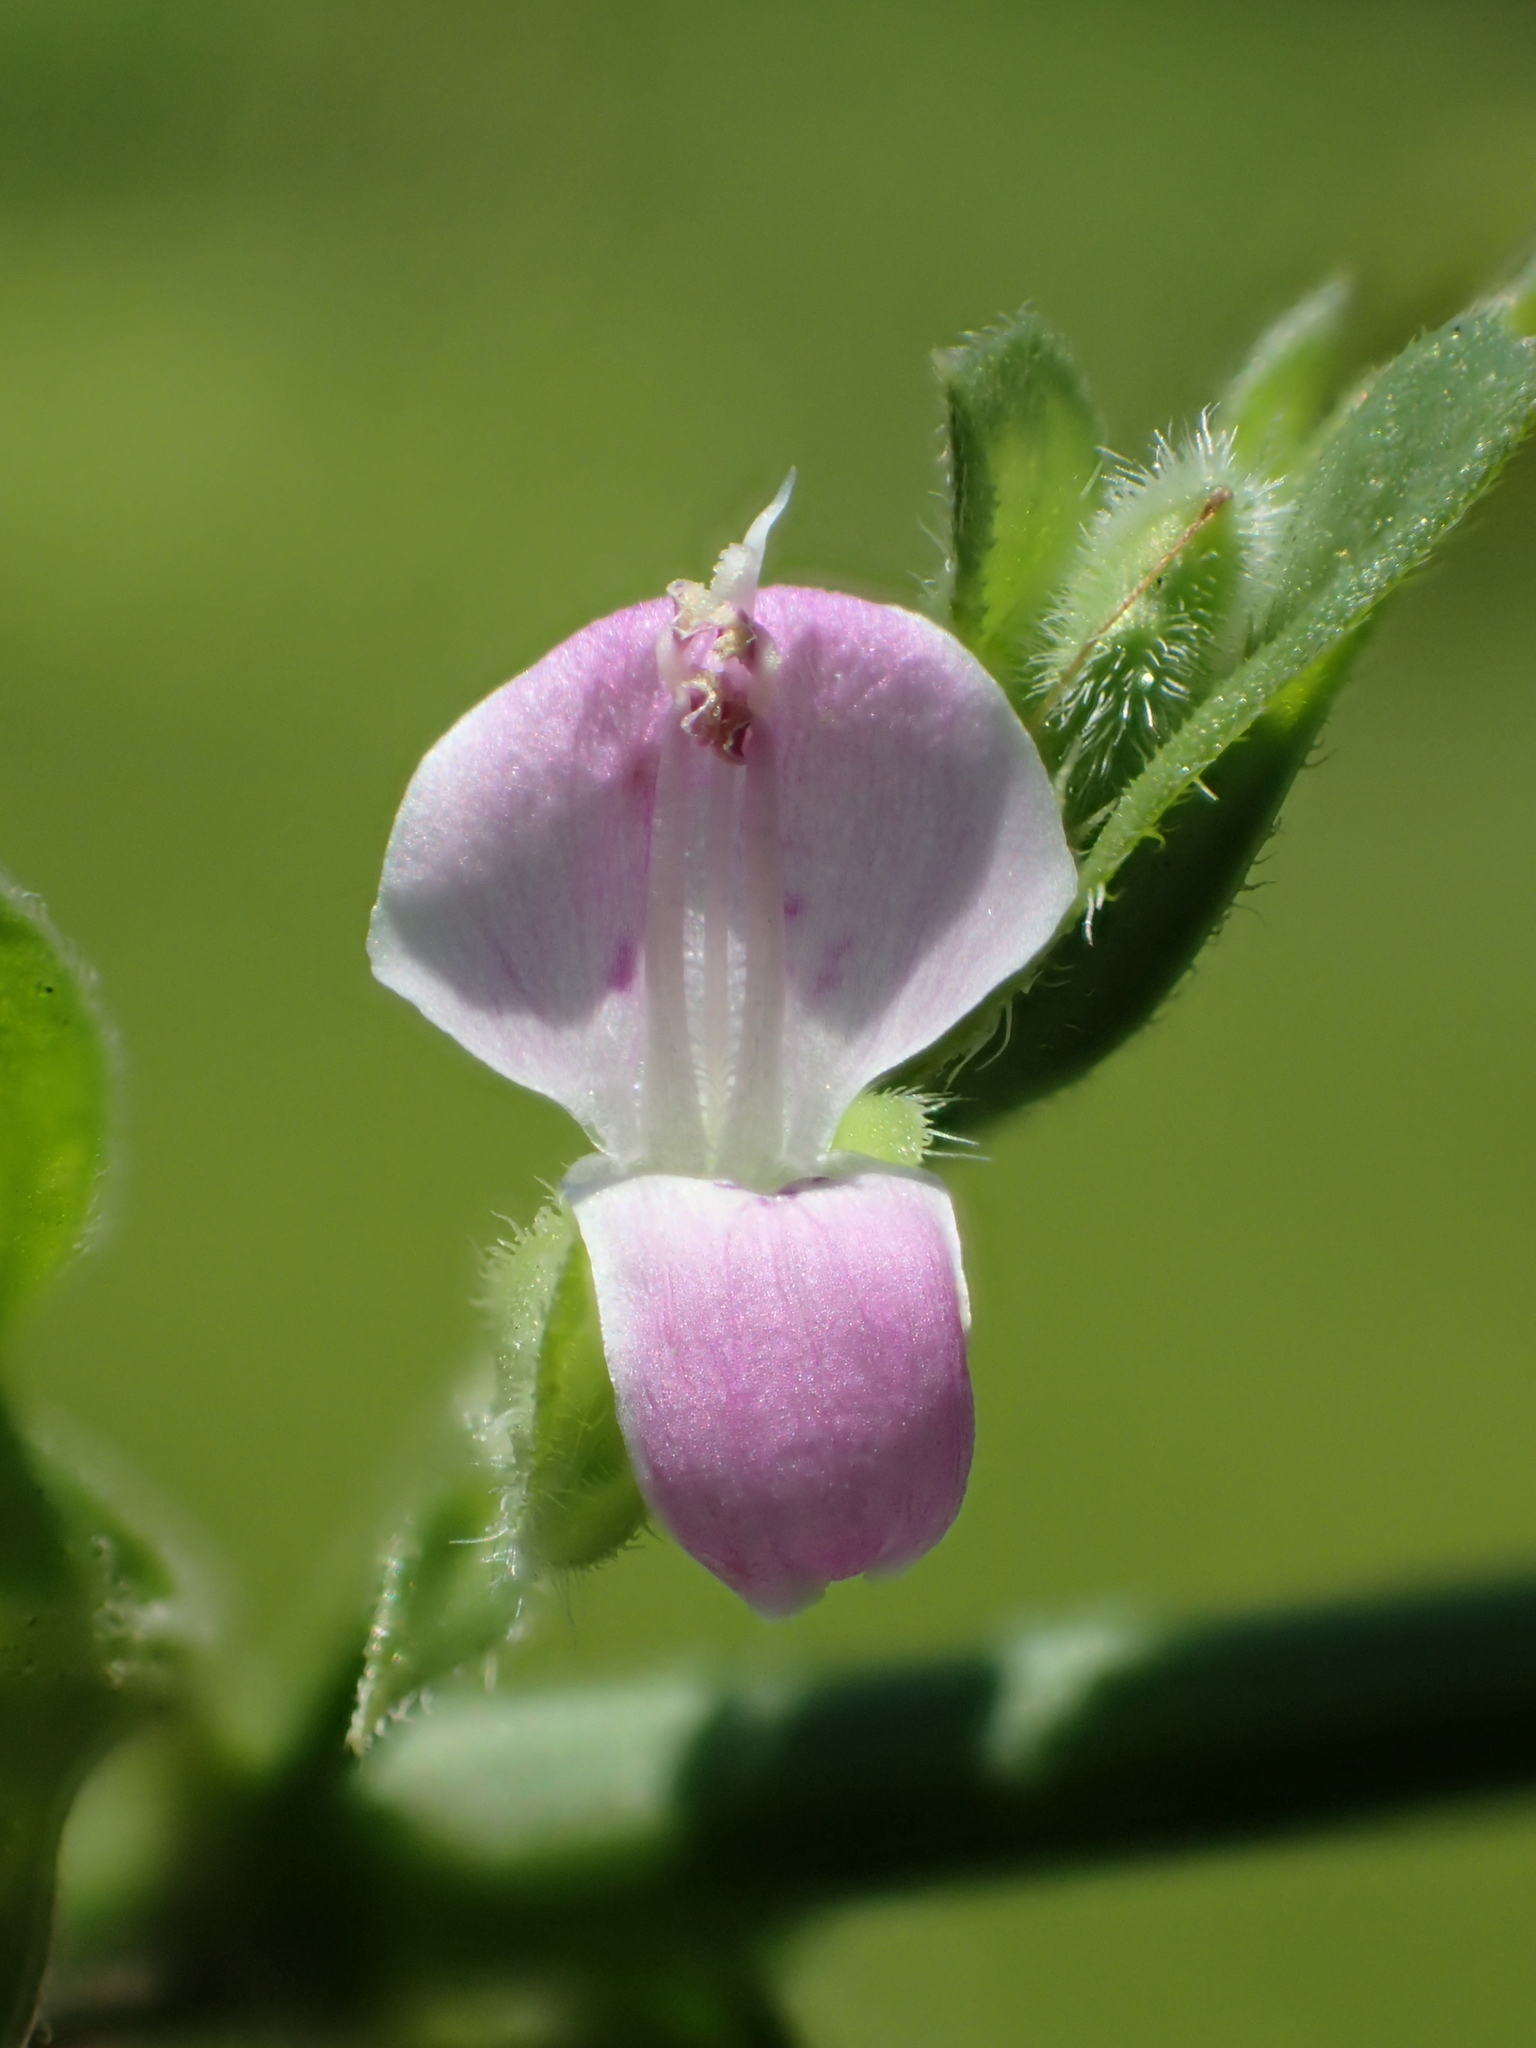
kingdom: Plantae
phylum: Tracheophyta
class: Magnoliopsida
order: Lamiales
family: Acanthaceae
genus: Dicliptera
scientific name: Dicliptera chinensis
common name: Chinese foldwing
